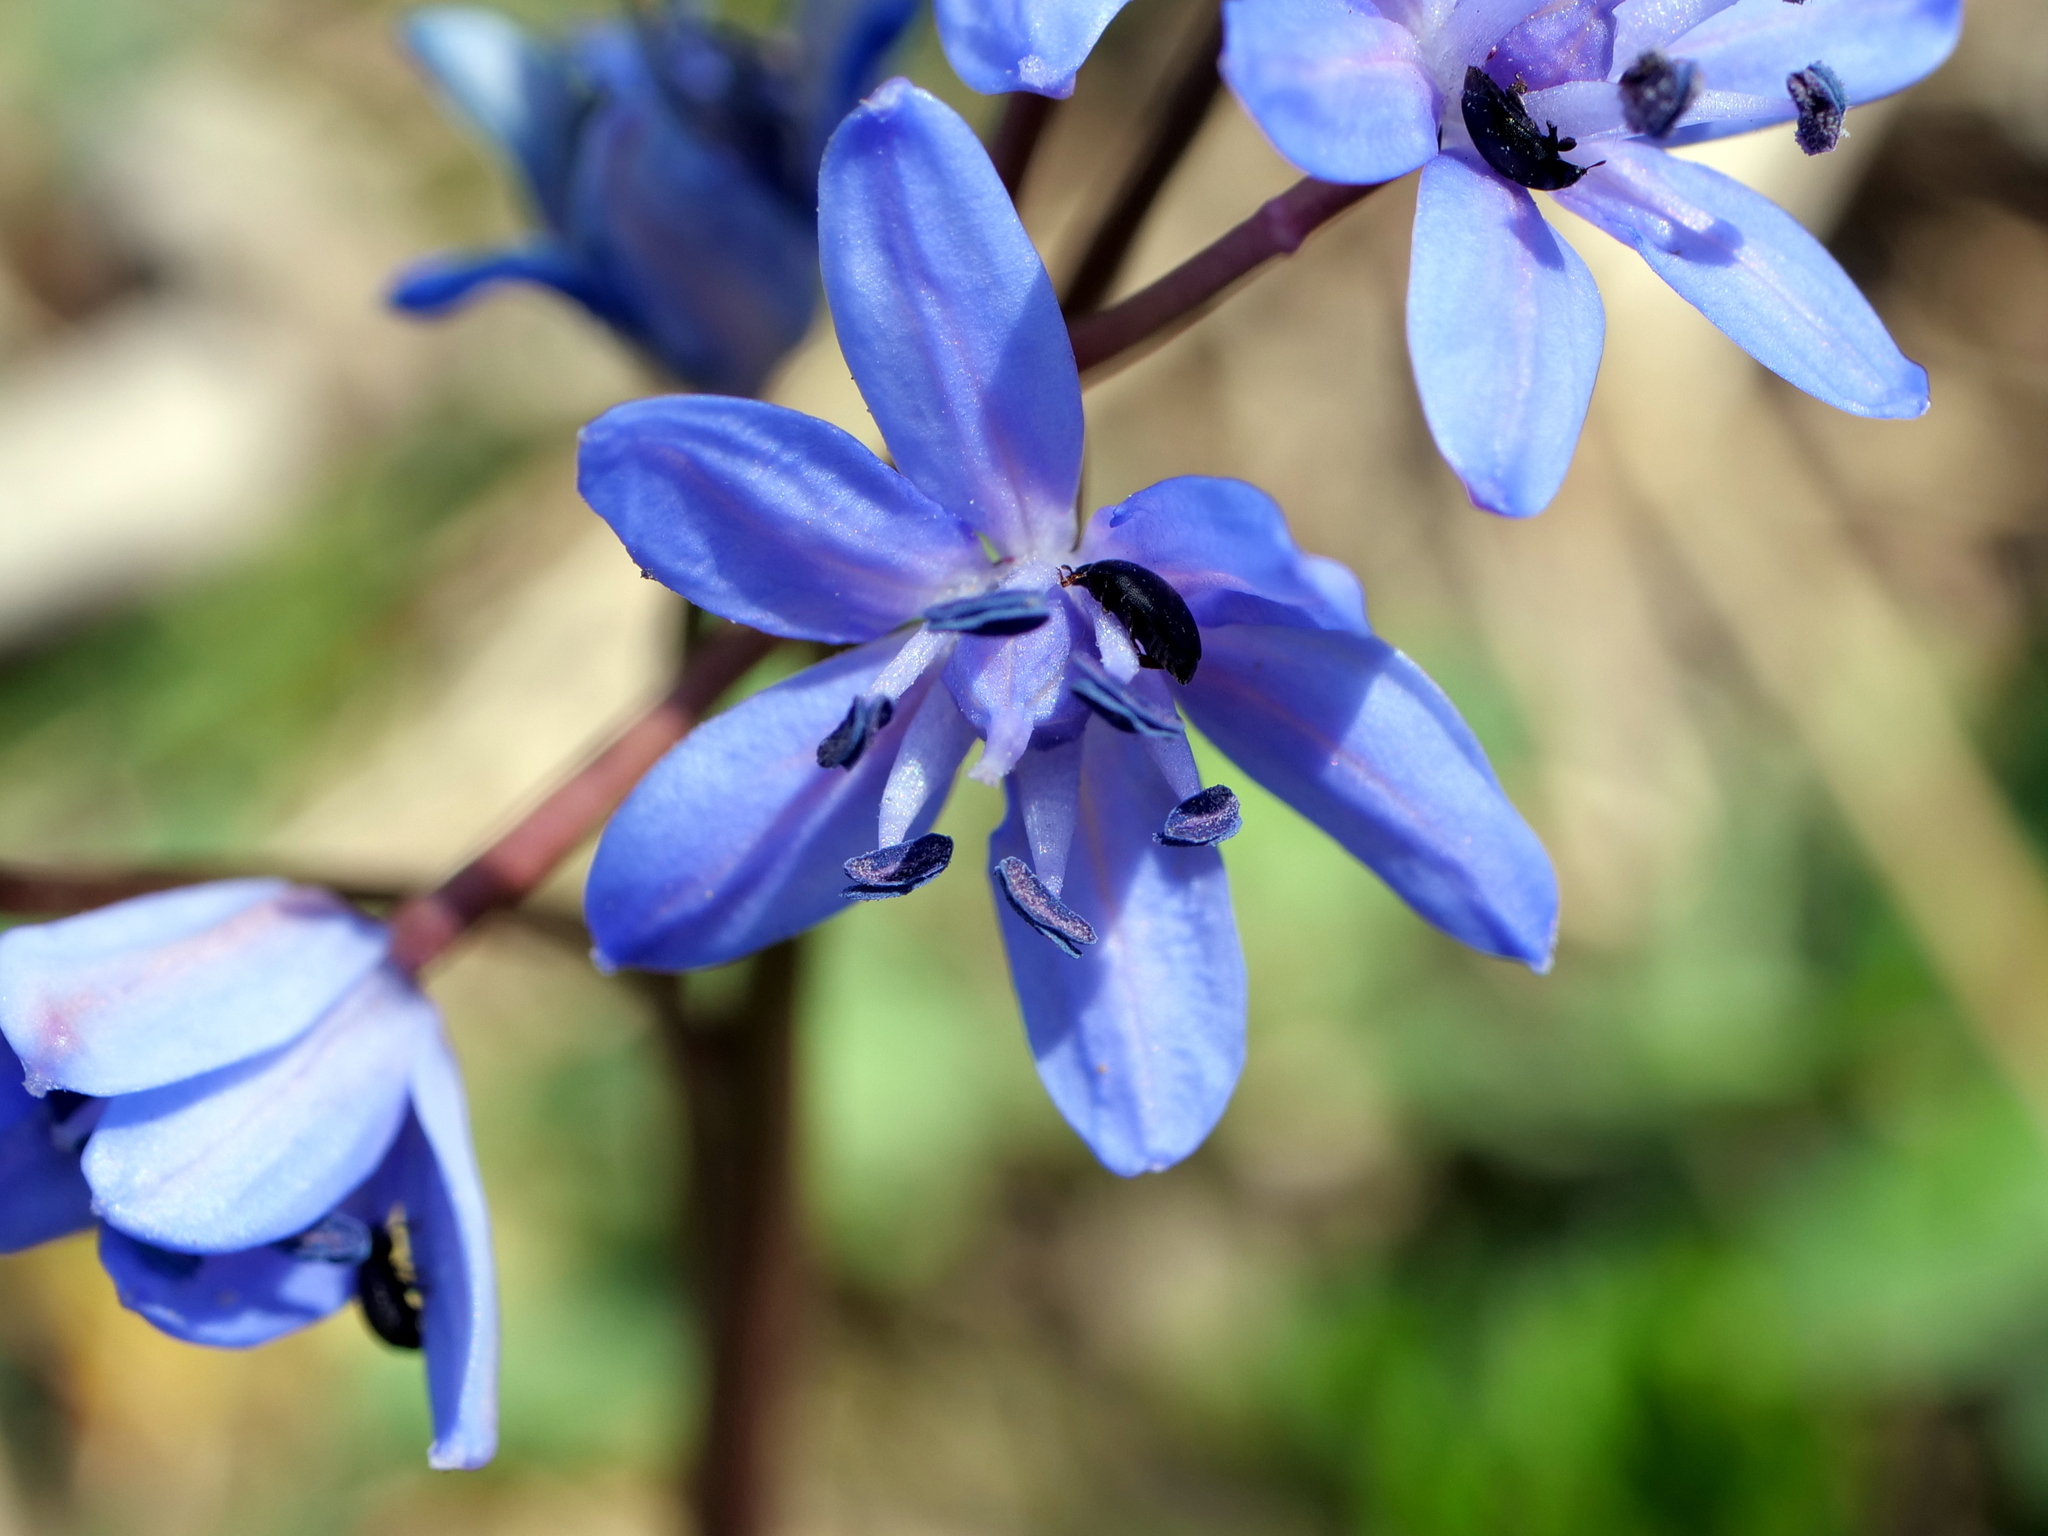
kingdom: Plantae
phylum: Tracheophyta
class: Liliopsida
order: Asparagales
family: Asparagaceae
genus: Scilla
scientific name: Scilla bifolia
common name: Alpine squill
